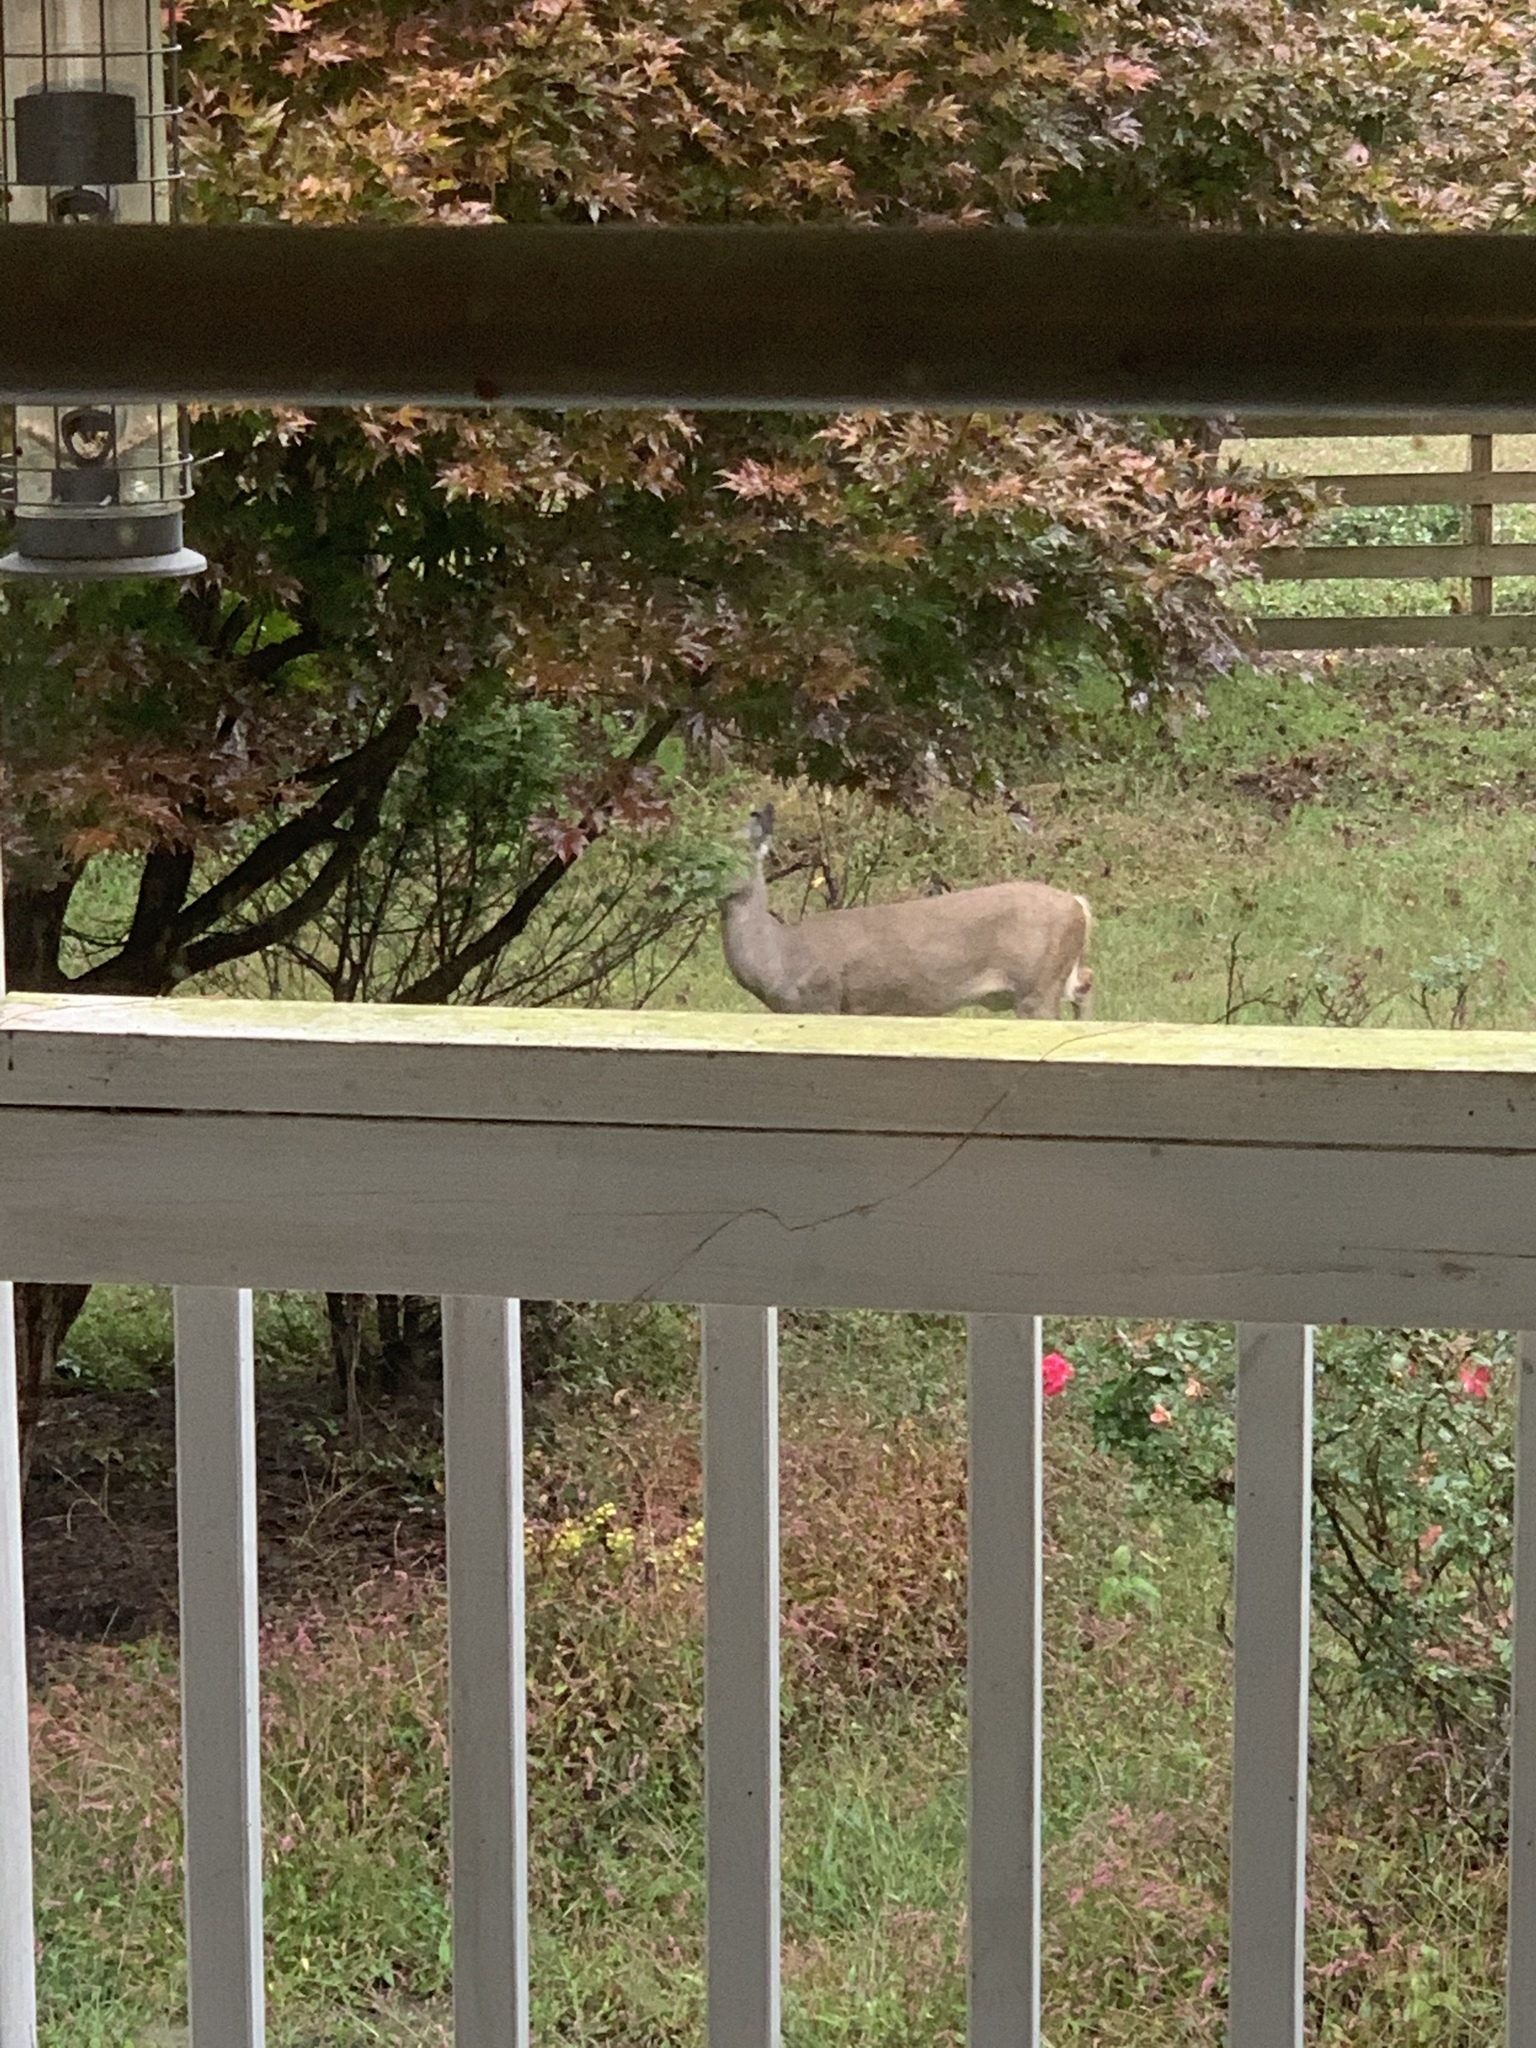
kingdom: Animalia
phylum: Chordata
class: Mammalia
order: Artiodactyla
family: Cervidae
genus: Odocoileus
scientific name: Odocoileus virginianus
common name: White-tailed deer
